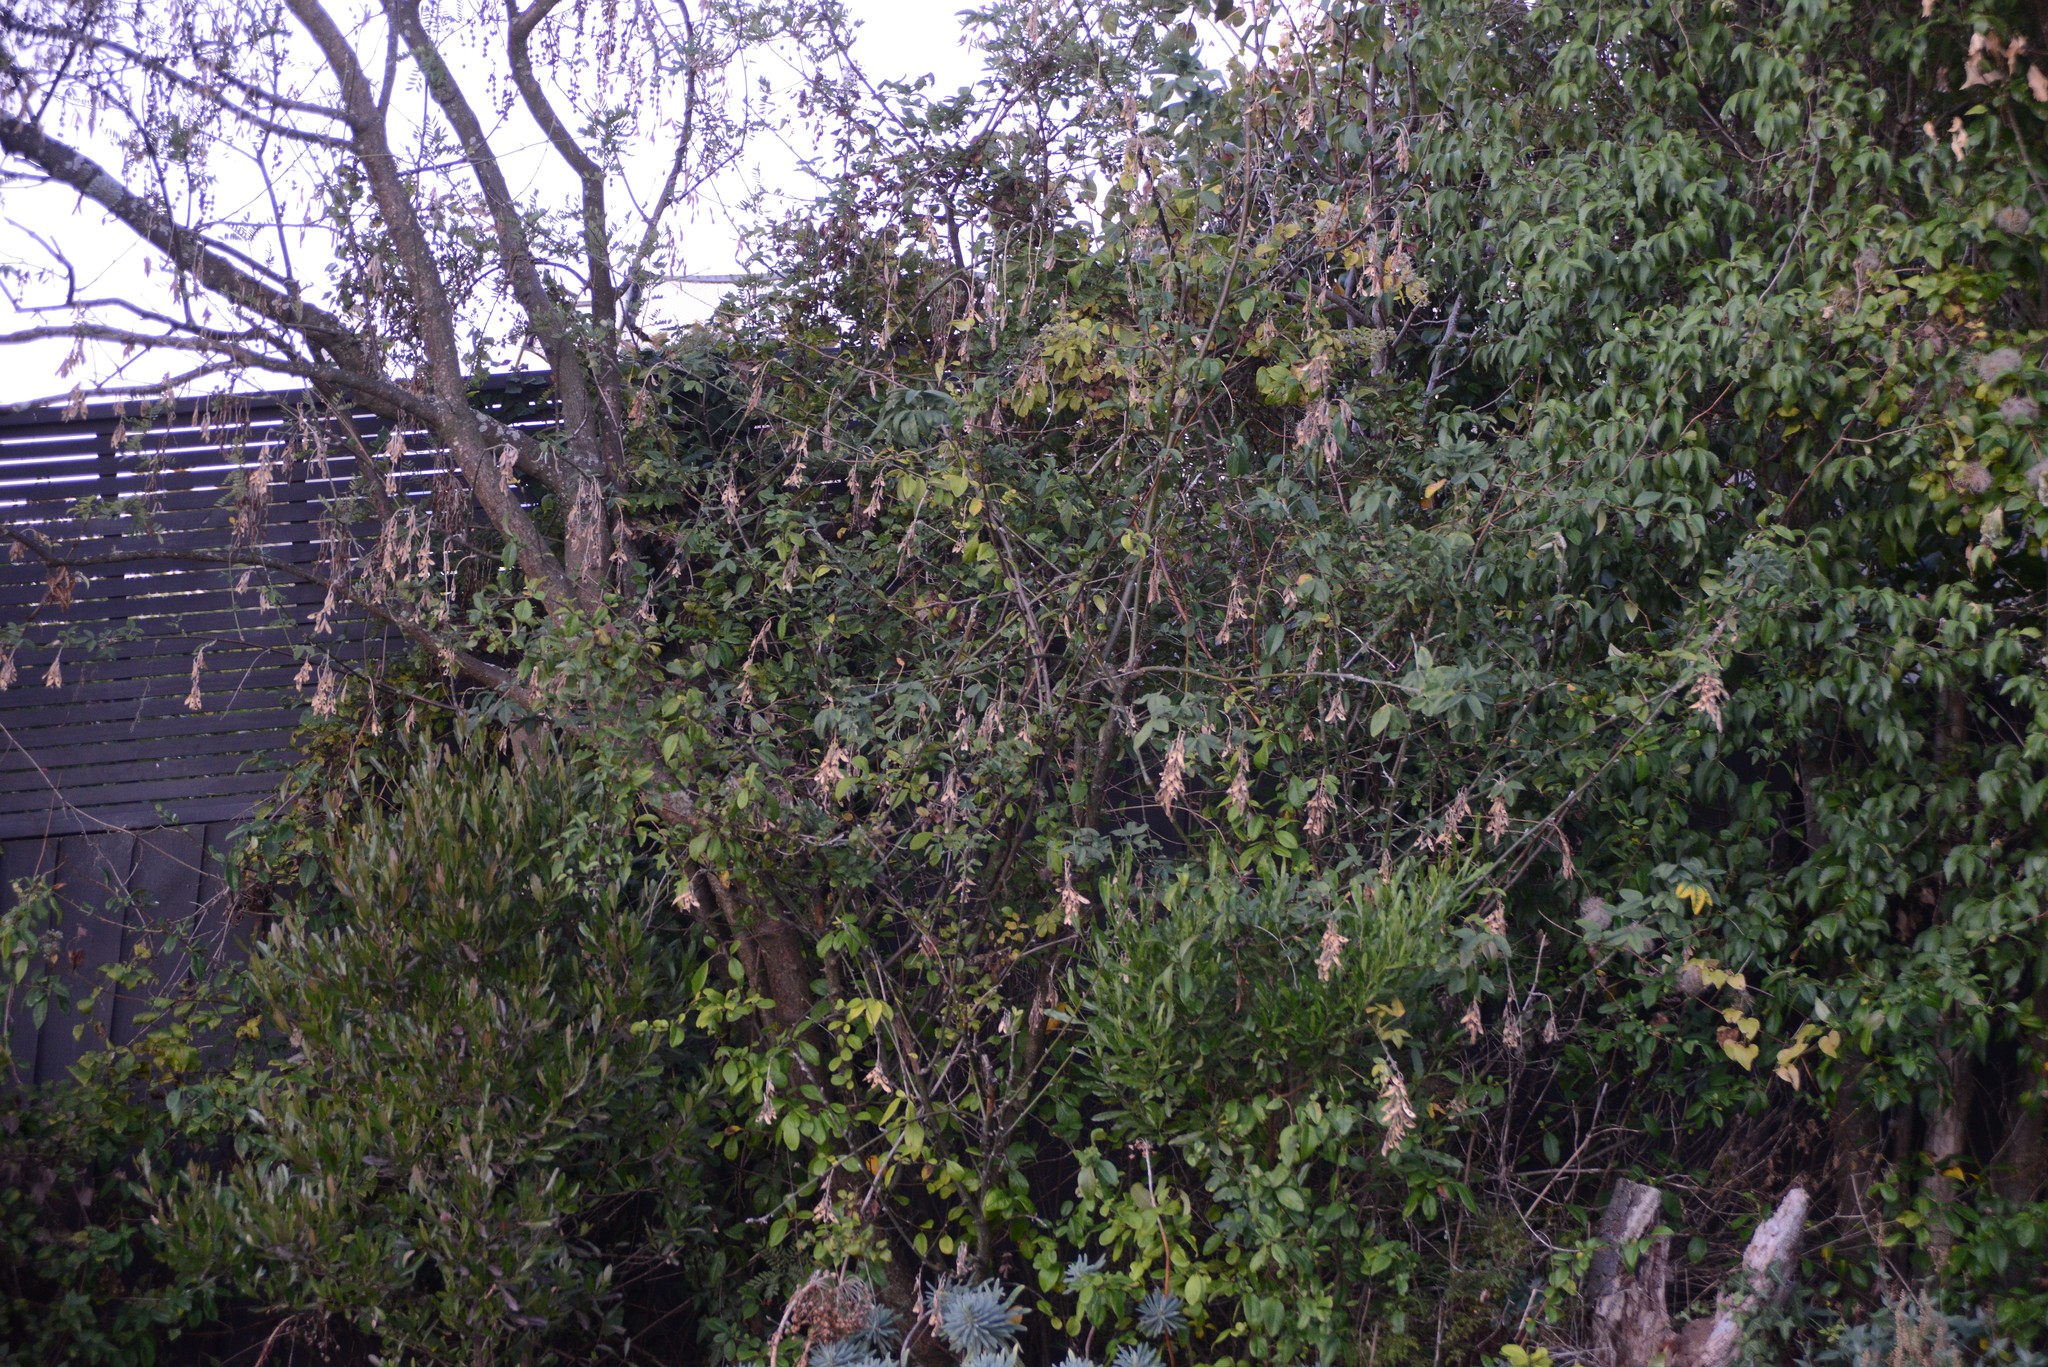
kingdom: Plantae
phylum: Tracheophyta
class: Magnoliopsida
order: Fabales
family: Fabaceae
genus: Laburnum
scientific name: Laburnum anagyroides
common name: Laburnum
